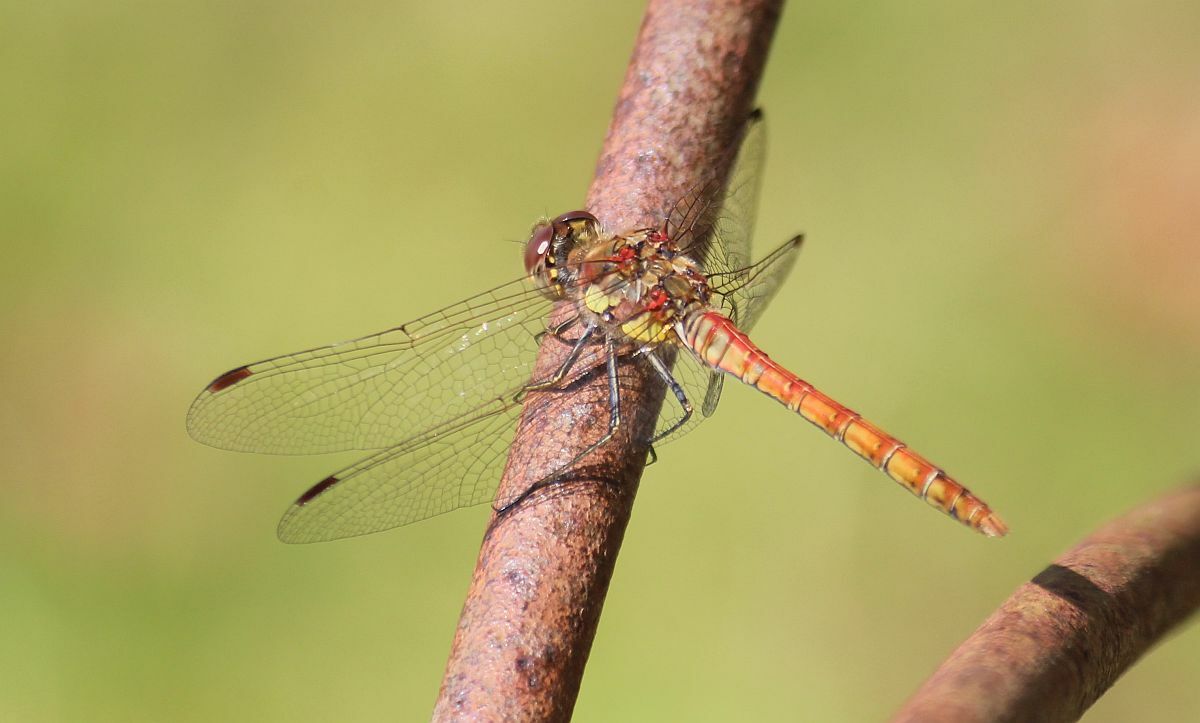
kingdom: Animalia
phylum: Arthropoda
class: Insecta
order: Odonata
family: Libellulidae
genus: Sympetrum
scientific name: Sympetrum striolatum
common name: Common darter
